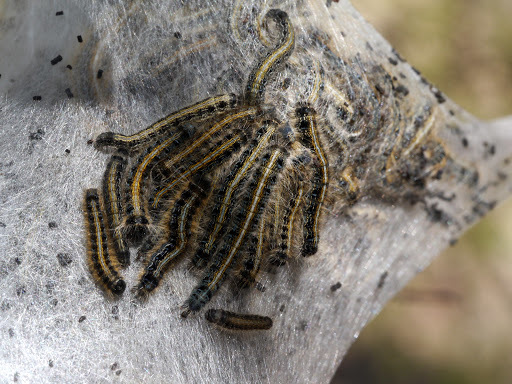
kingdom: Animalia
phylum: Arthropoda
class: Insecta
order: Lepidoptera
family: Lasiocampidae
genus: Malacosoma
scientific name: Malacosoma americana
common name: Eastern tent caterpillar moth
